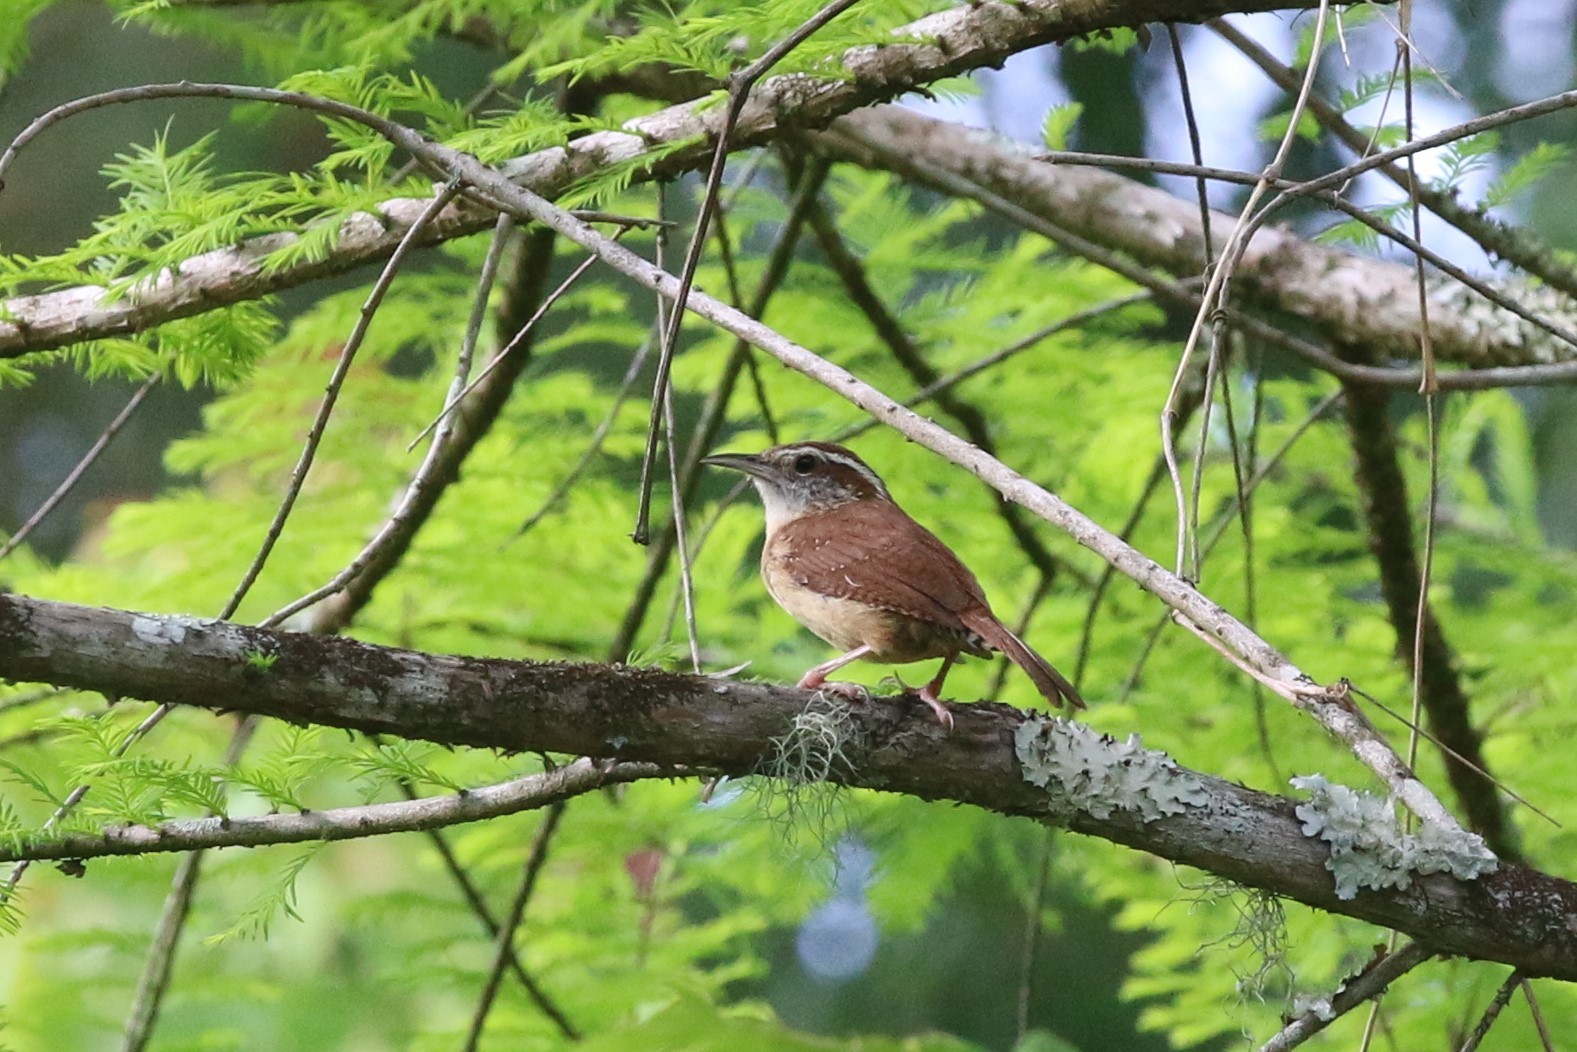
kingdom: Animalia
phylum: Chordata
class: Aves
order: Passeriformes
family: Troglodytidae
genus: Thryothorus
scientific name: Thryothorus ludovicianus
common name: Carolina wren
